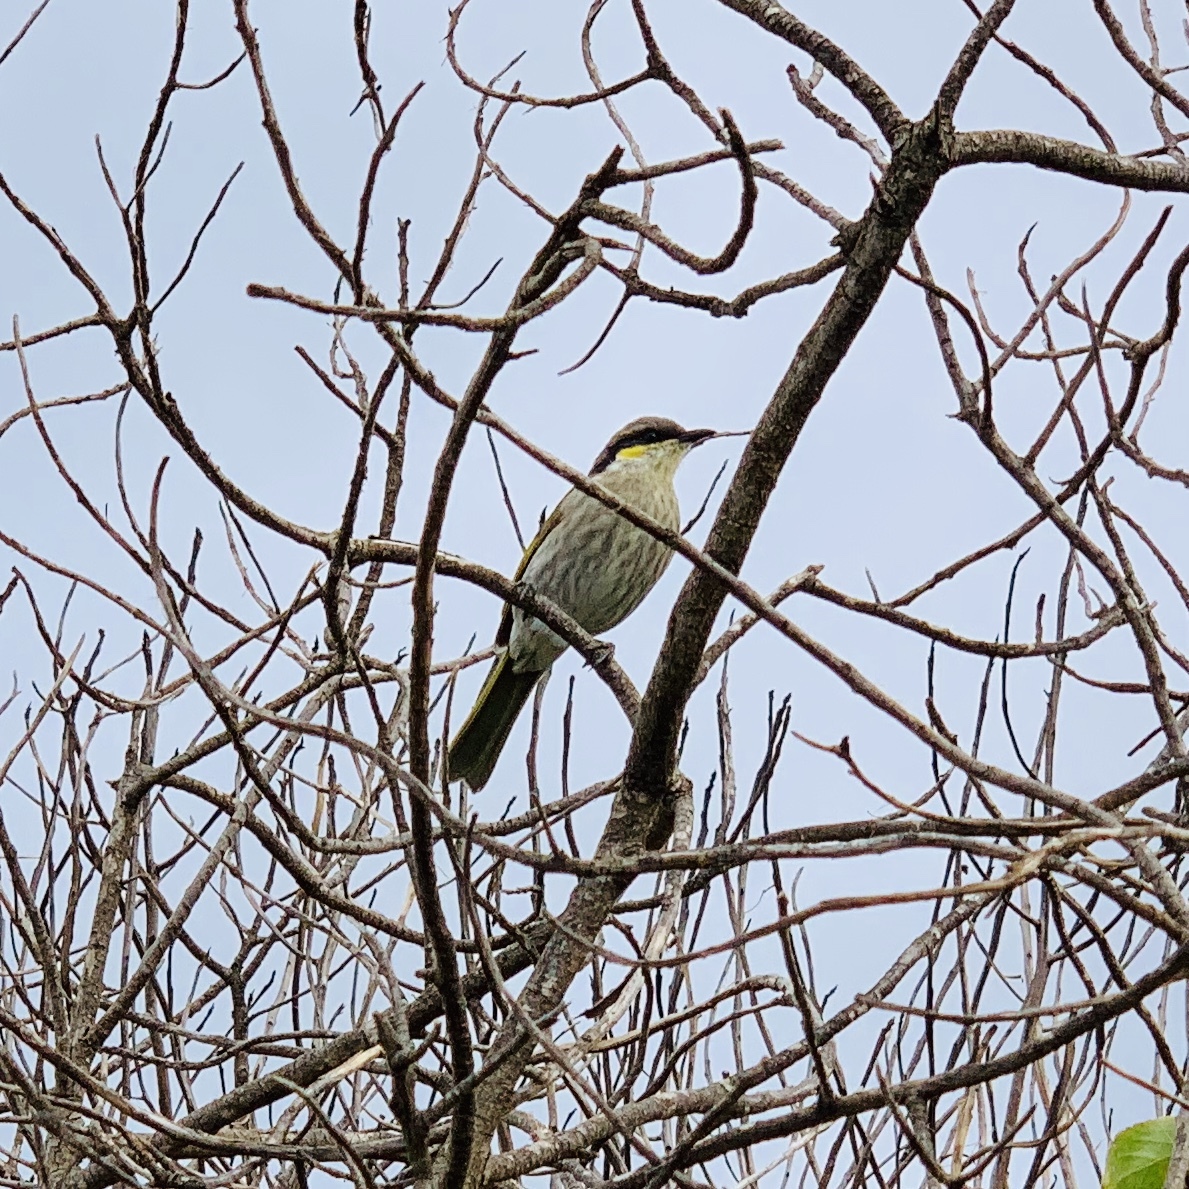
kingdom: Animalia
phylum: Chordata
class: Aves
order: Passeriformes
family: Meliphagidae
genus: Gavicalis
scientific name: Gavicalis virescens
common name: Singing honeyeater
